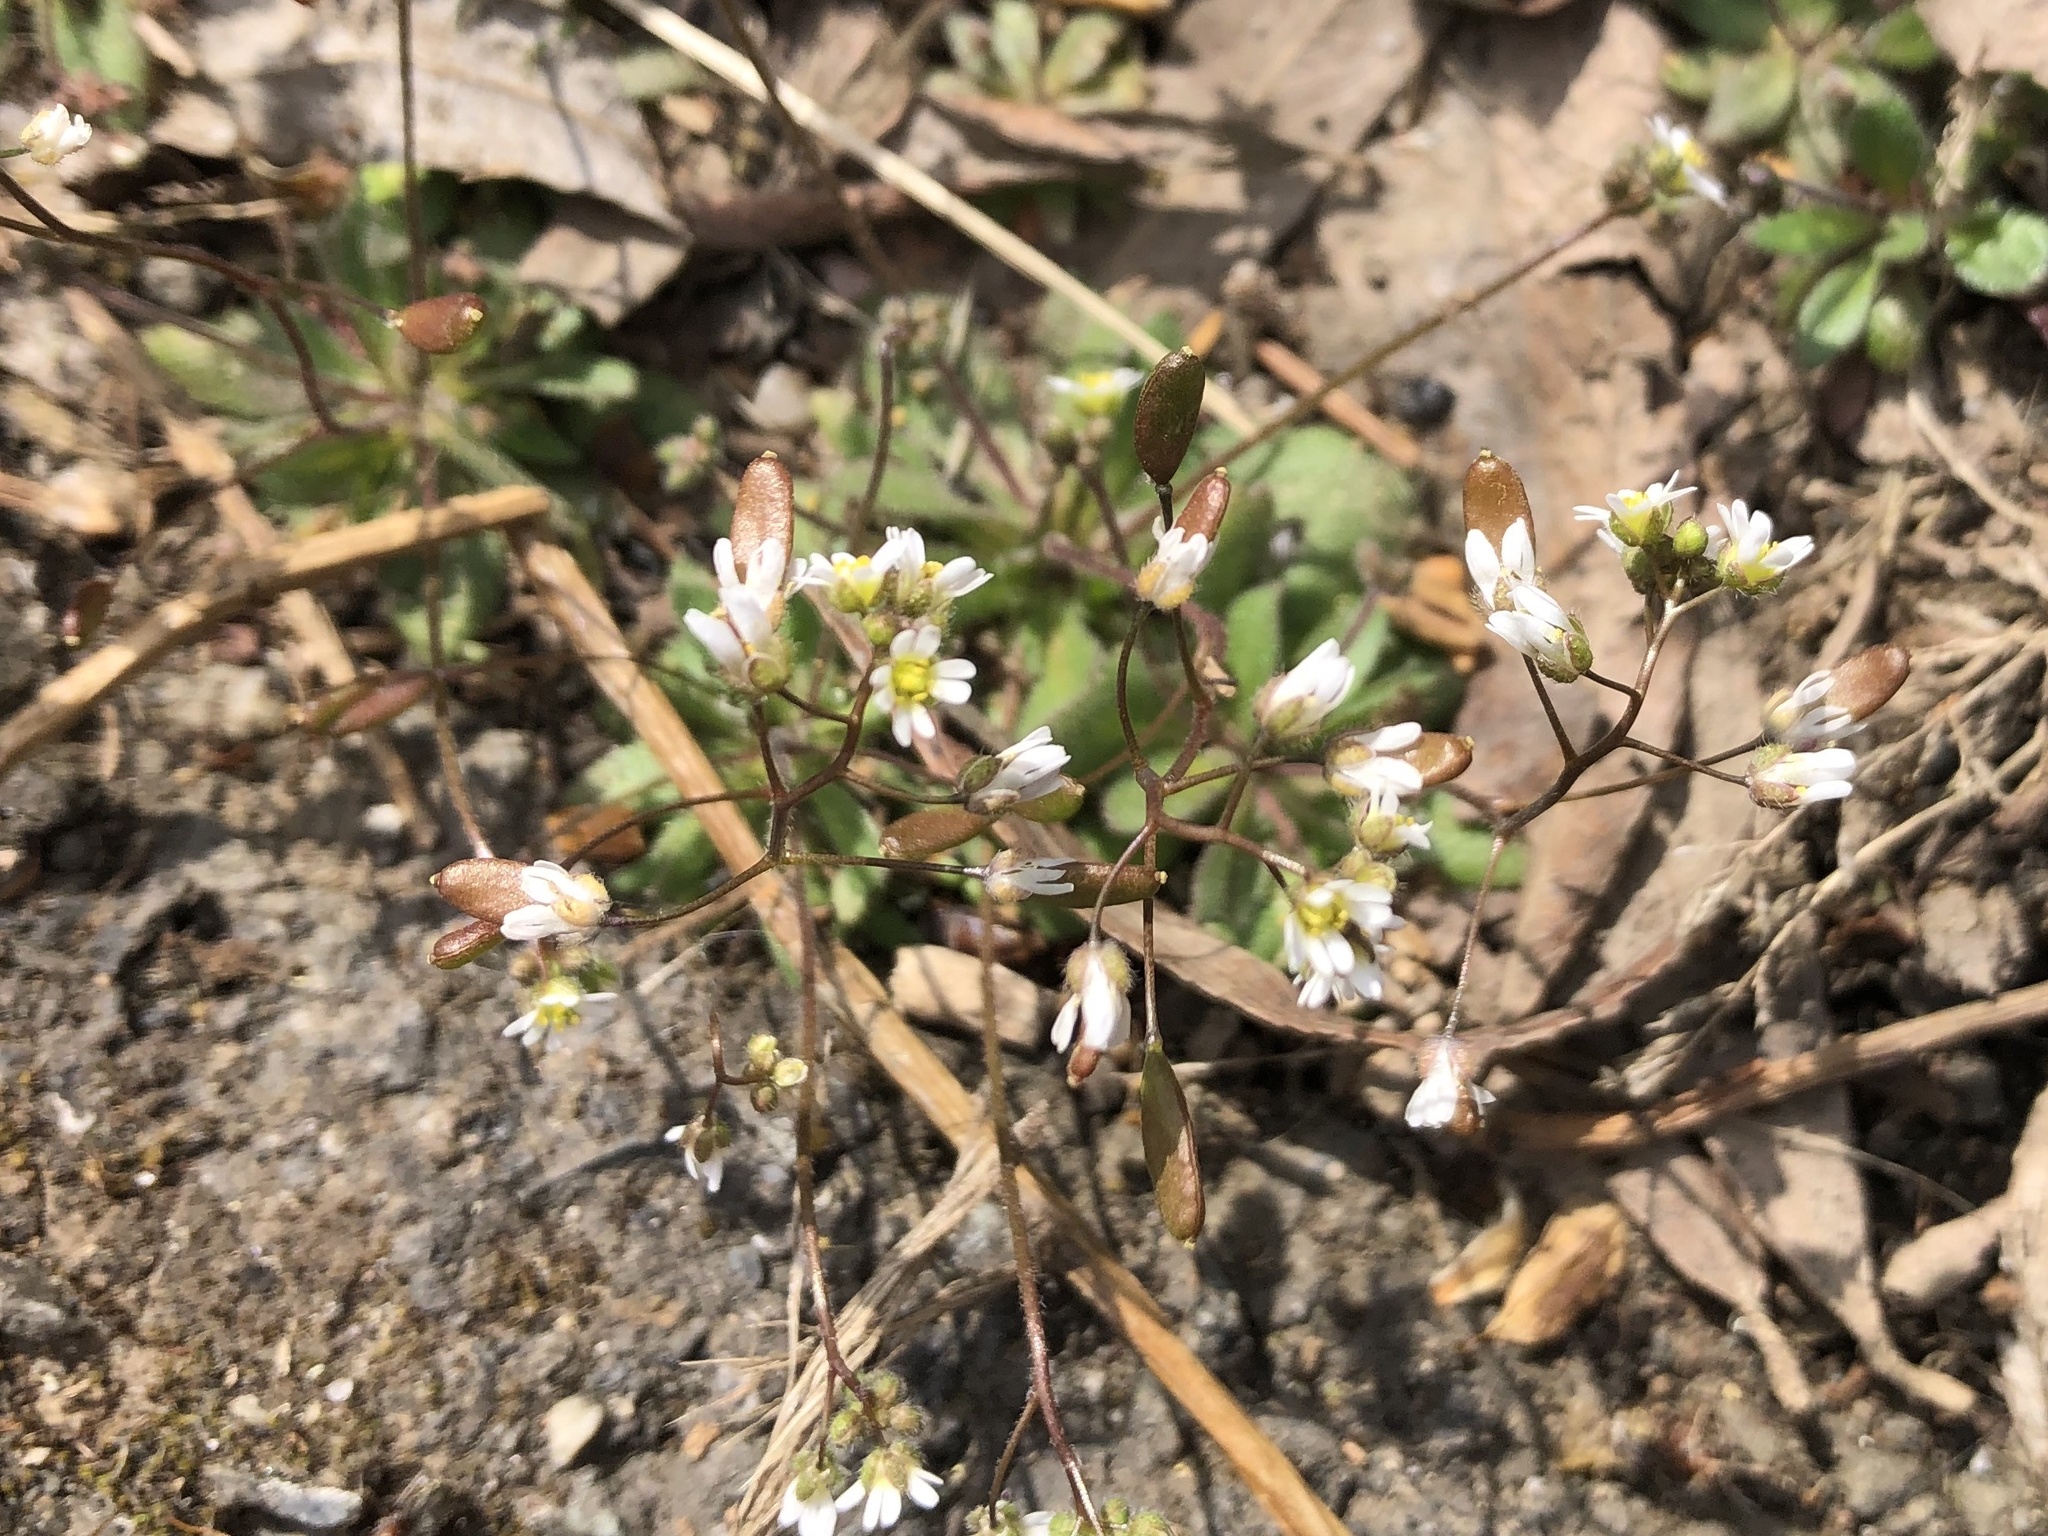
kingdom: Plantae
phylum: Tracheophyta
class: Magnoliopsida
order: Brassicales
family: Brassicaceae
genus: Draba
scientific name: Draba verna
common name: Spring draba
